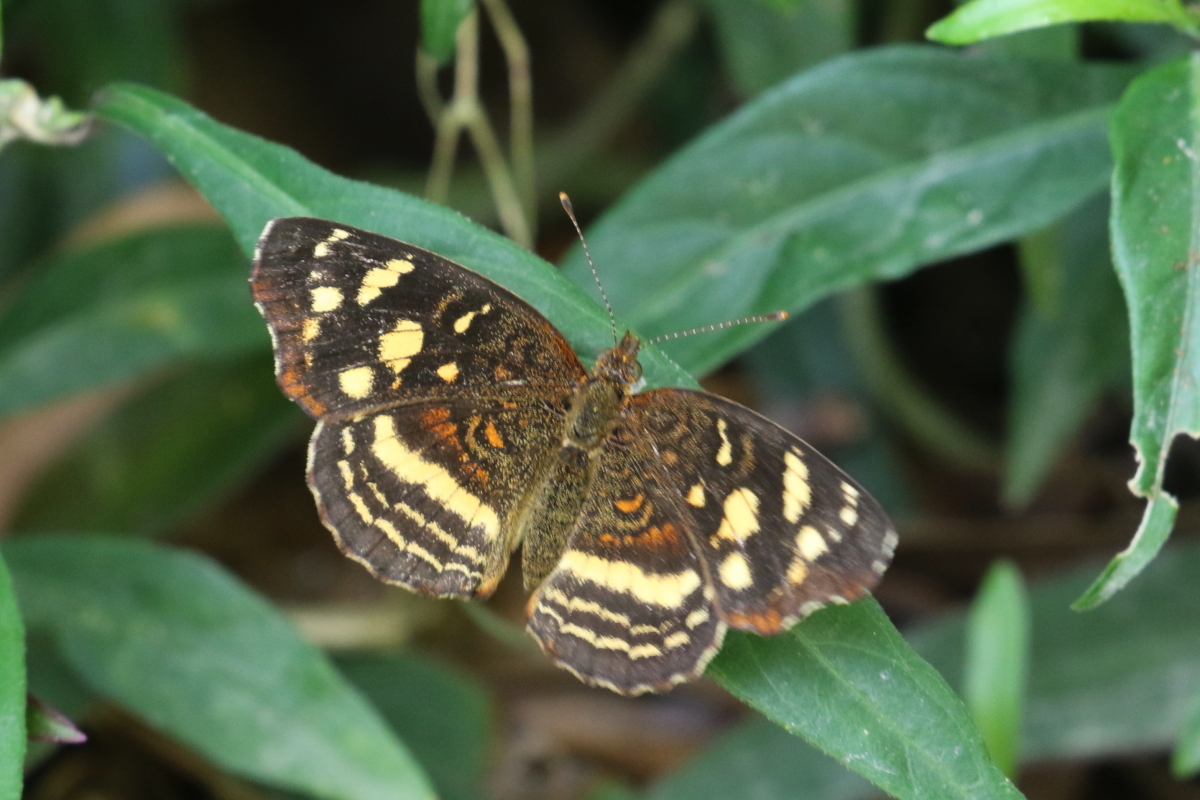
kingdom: Animalia
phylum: Arthropoda
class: Insecta
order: Lepidoptera
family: Nymphalidae
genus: Anthanassa
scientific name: Anthanassa drusilla
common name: Orange-patched crescent
